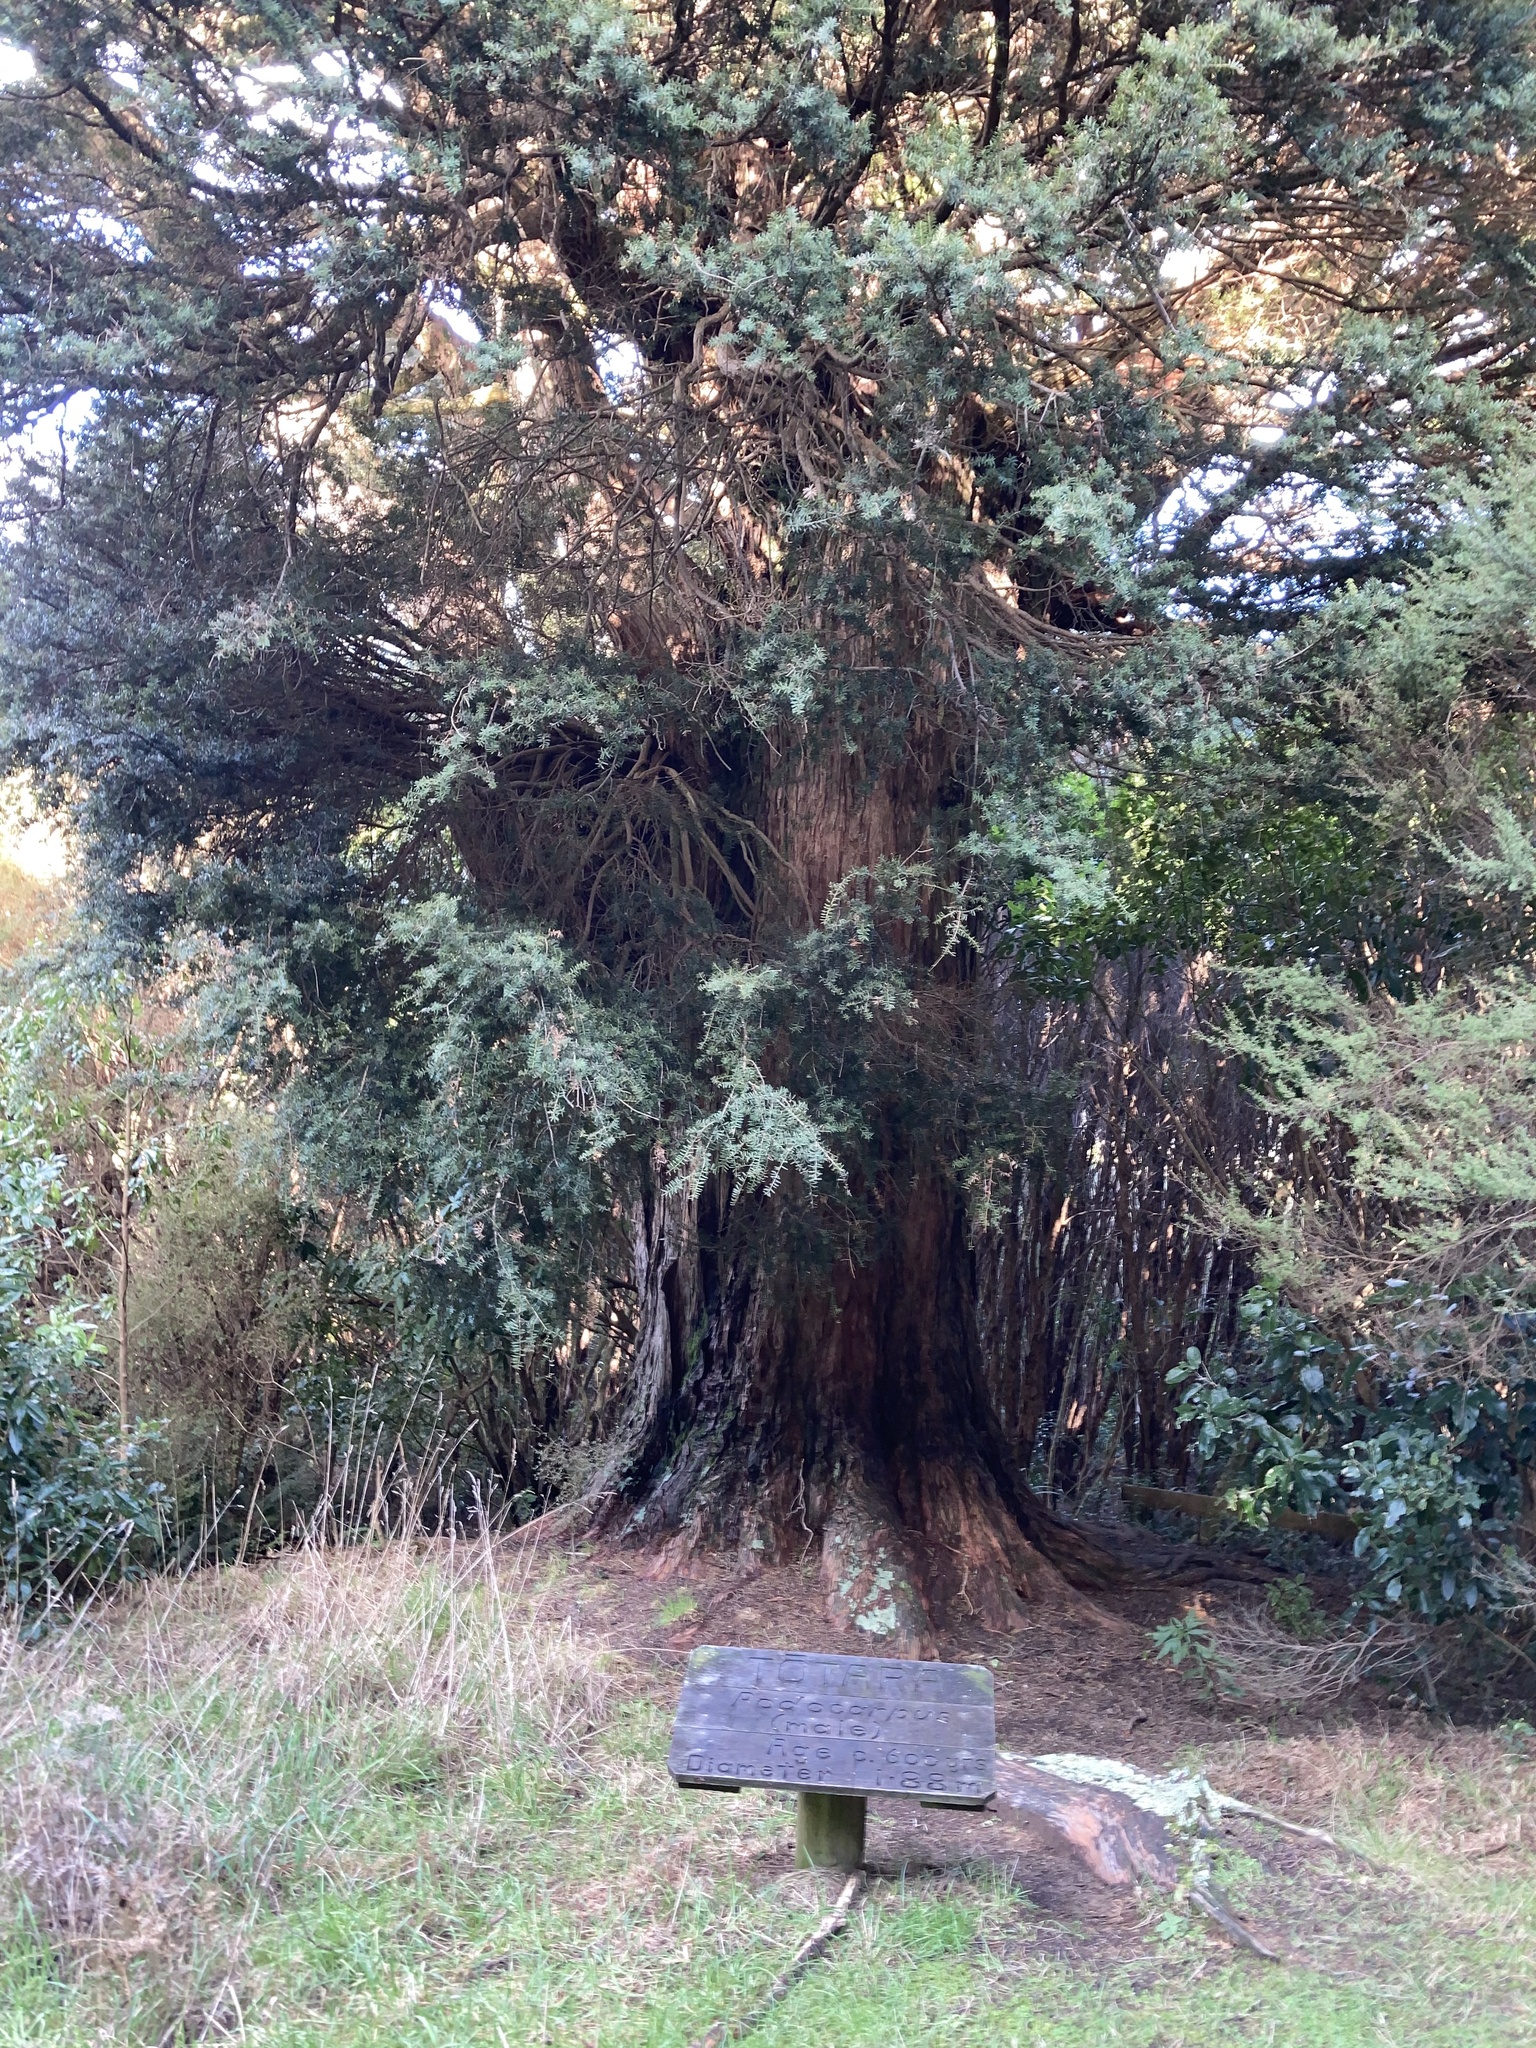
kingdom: Plantae
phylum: Tracheophyta
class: Pinopsida
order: Pinales
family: Podocarpaceae
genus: Podocarpus
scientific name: Podocarpus totara
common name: Totara
